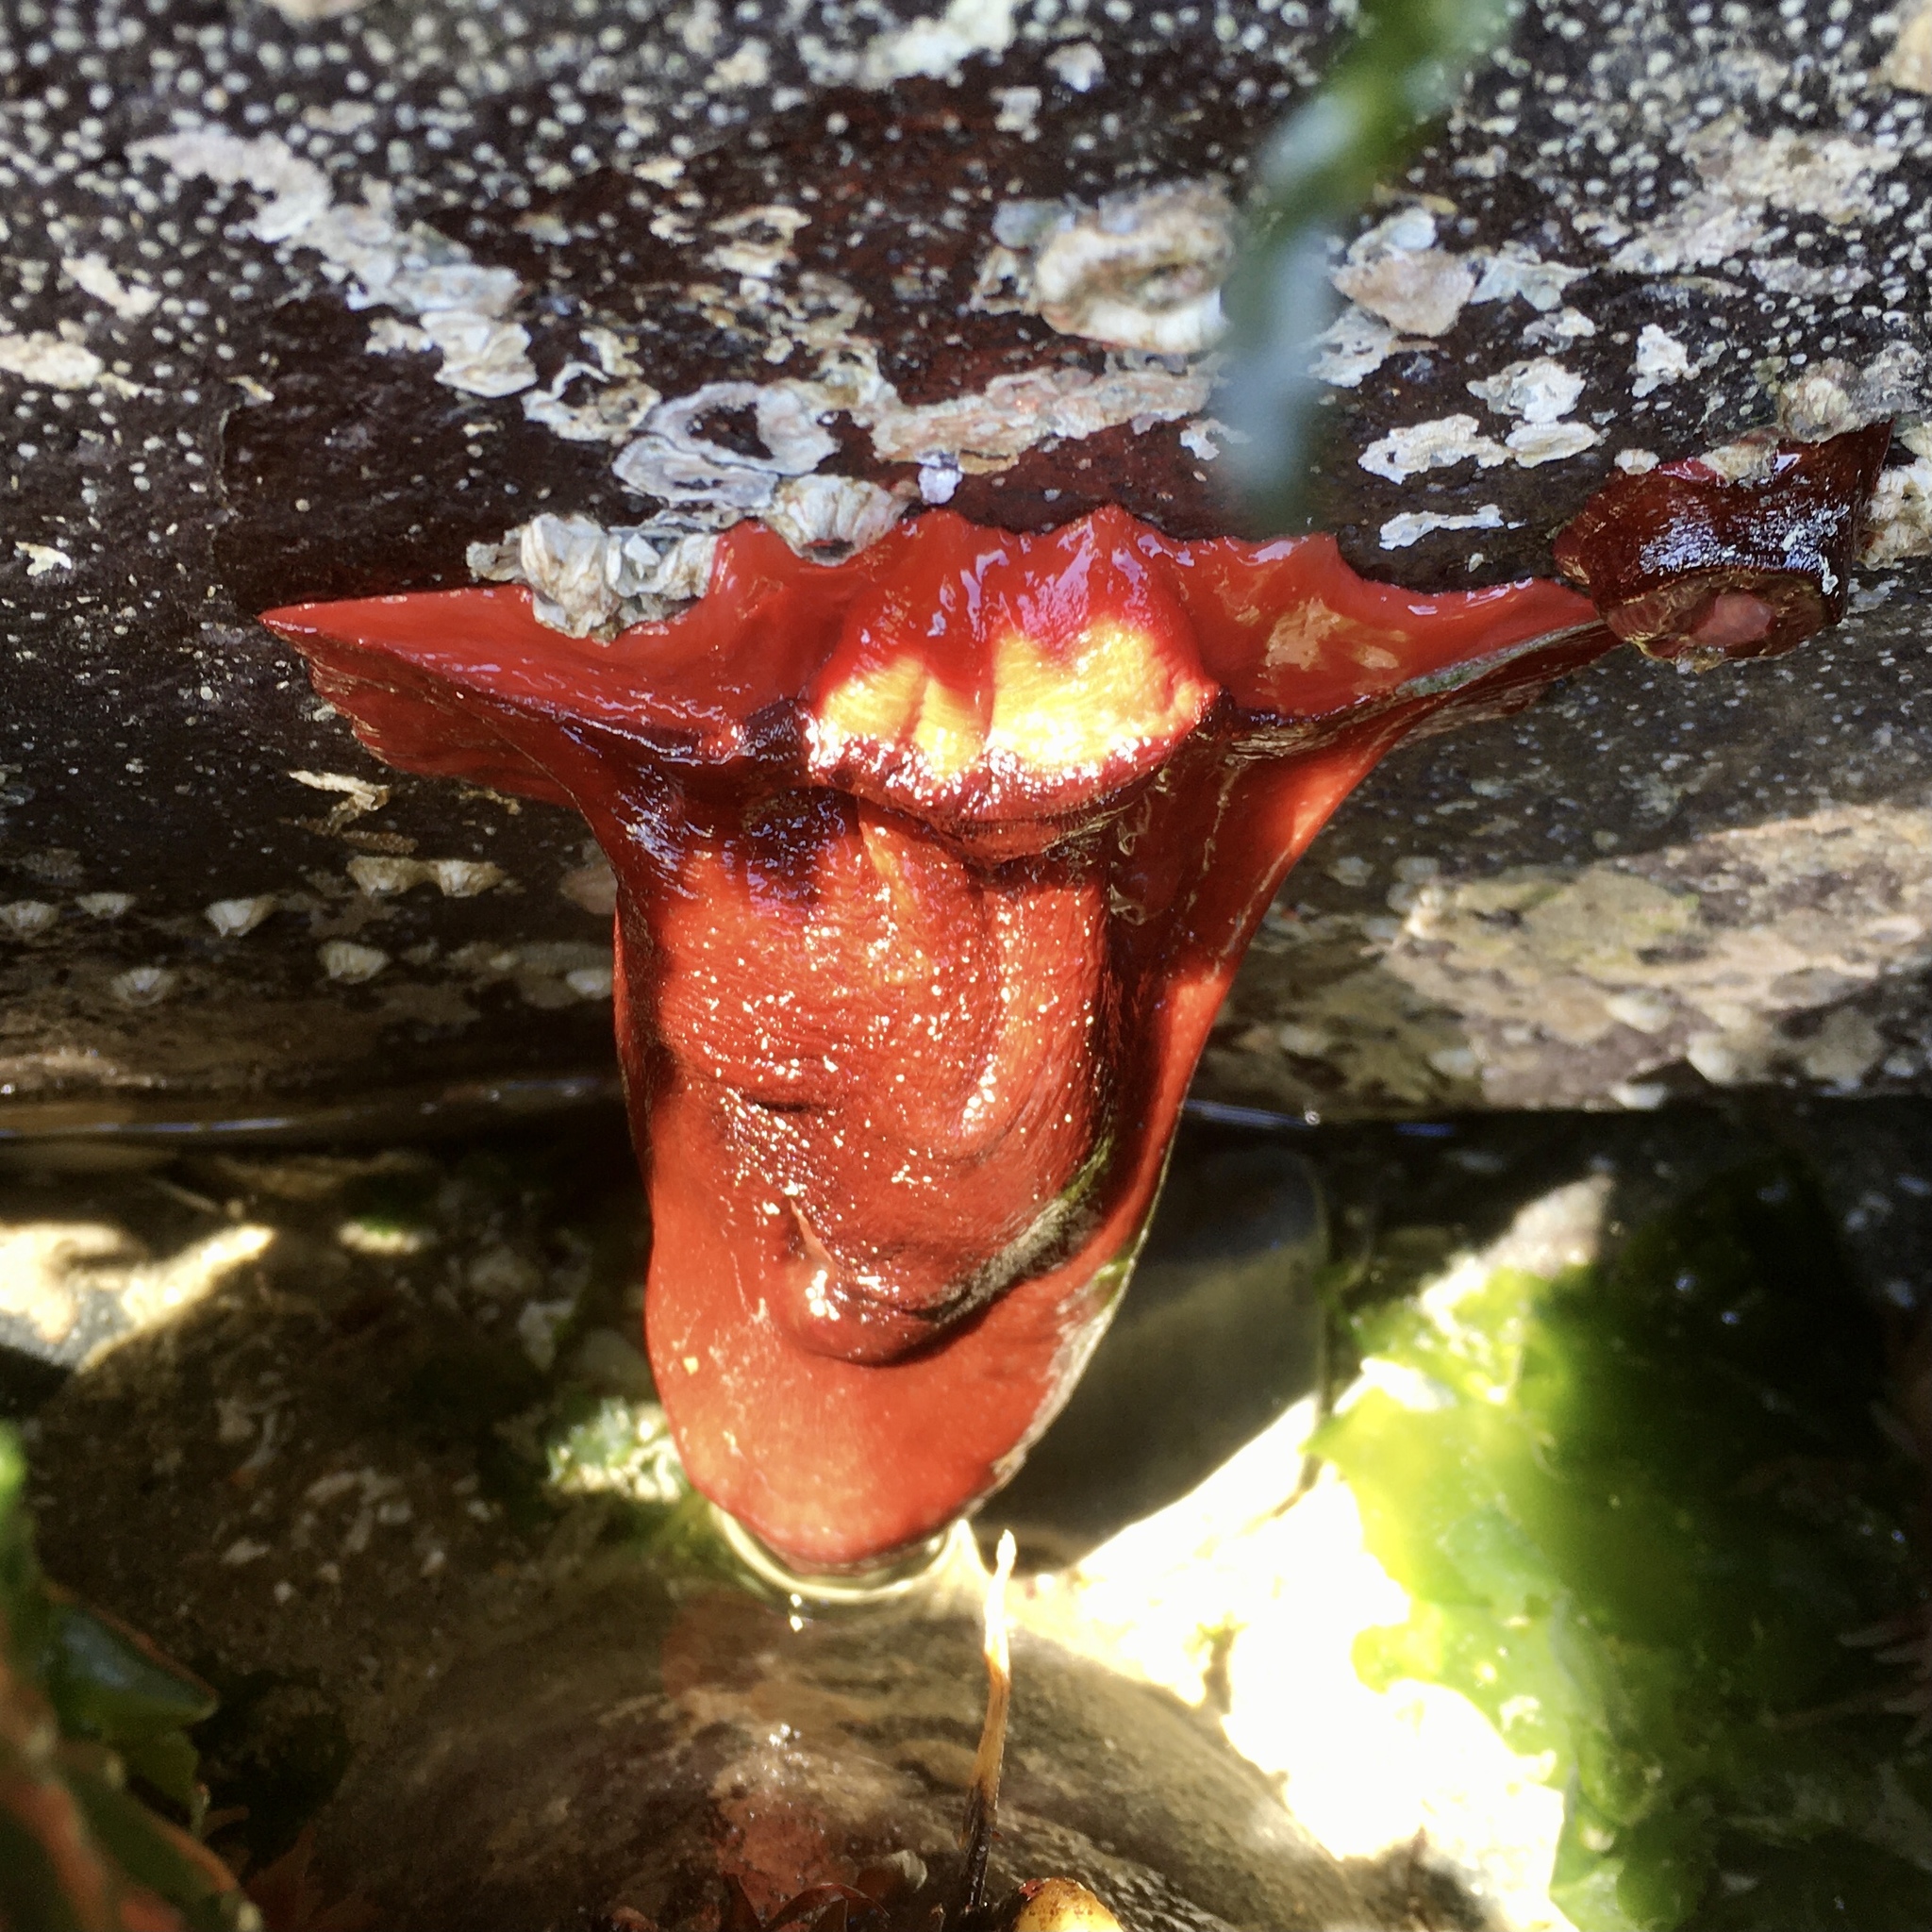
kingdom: Animalia
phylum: Cnidaria
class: Anthozoa
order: Actiniaria
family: Actiniidae
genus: Urticina
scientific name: Urticina grebelnyi
